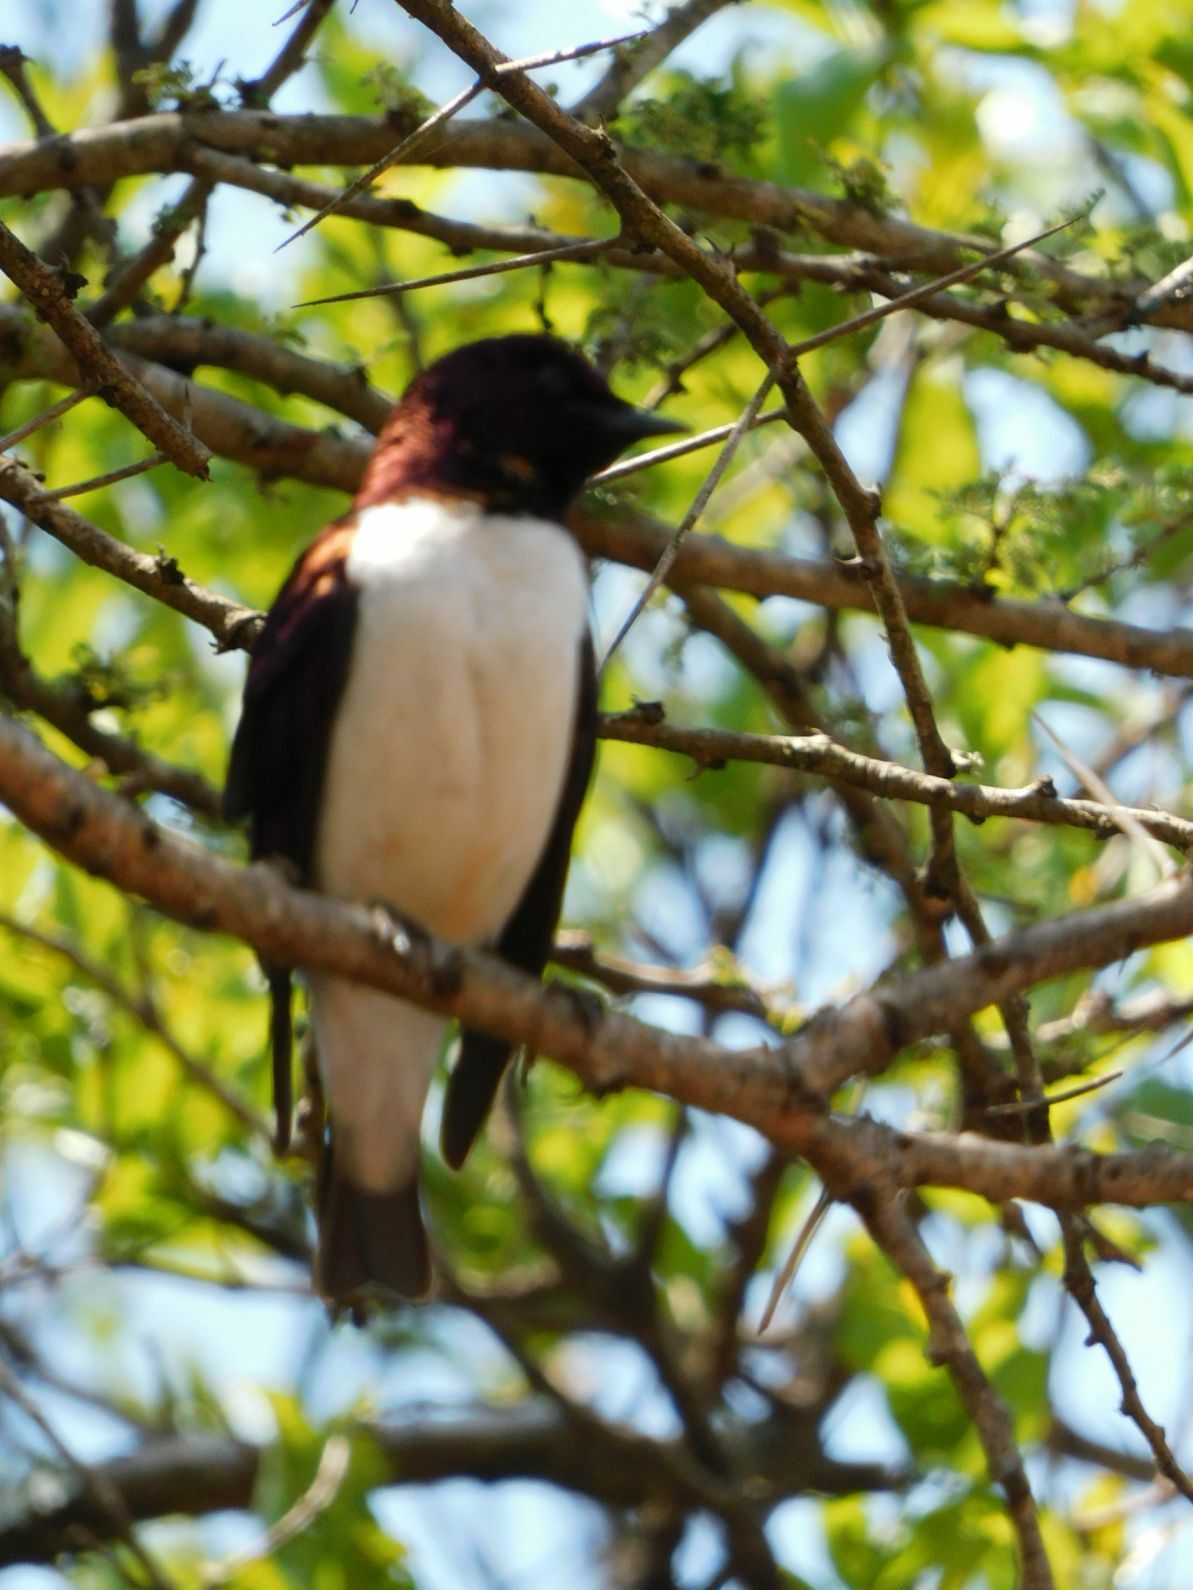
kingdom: Animalia
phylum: Chordata
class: Aves
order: Passeriformes
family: Sturnidae
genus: Cinnyricinclus
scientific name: Cinnyricinclus leucogaster
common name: Violet-backed starling
